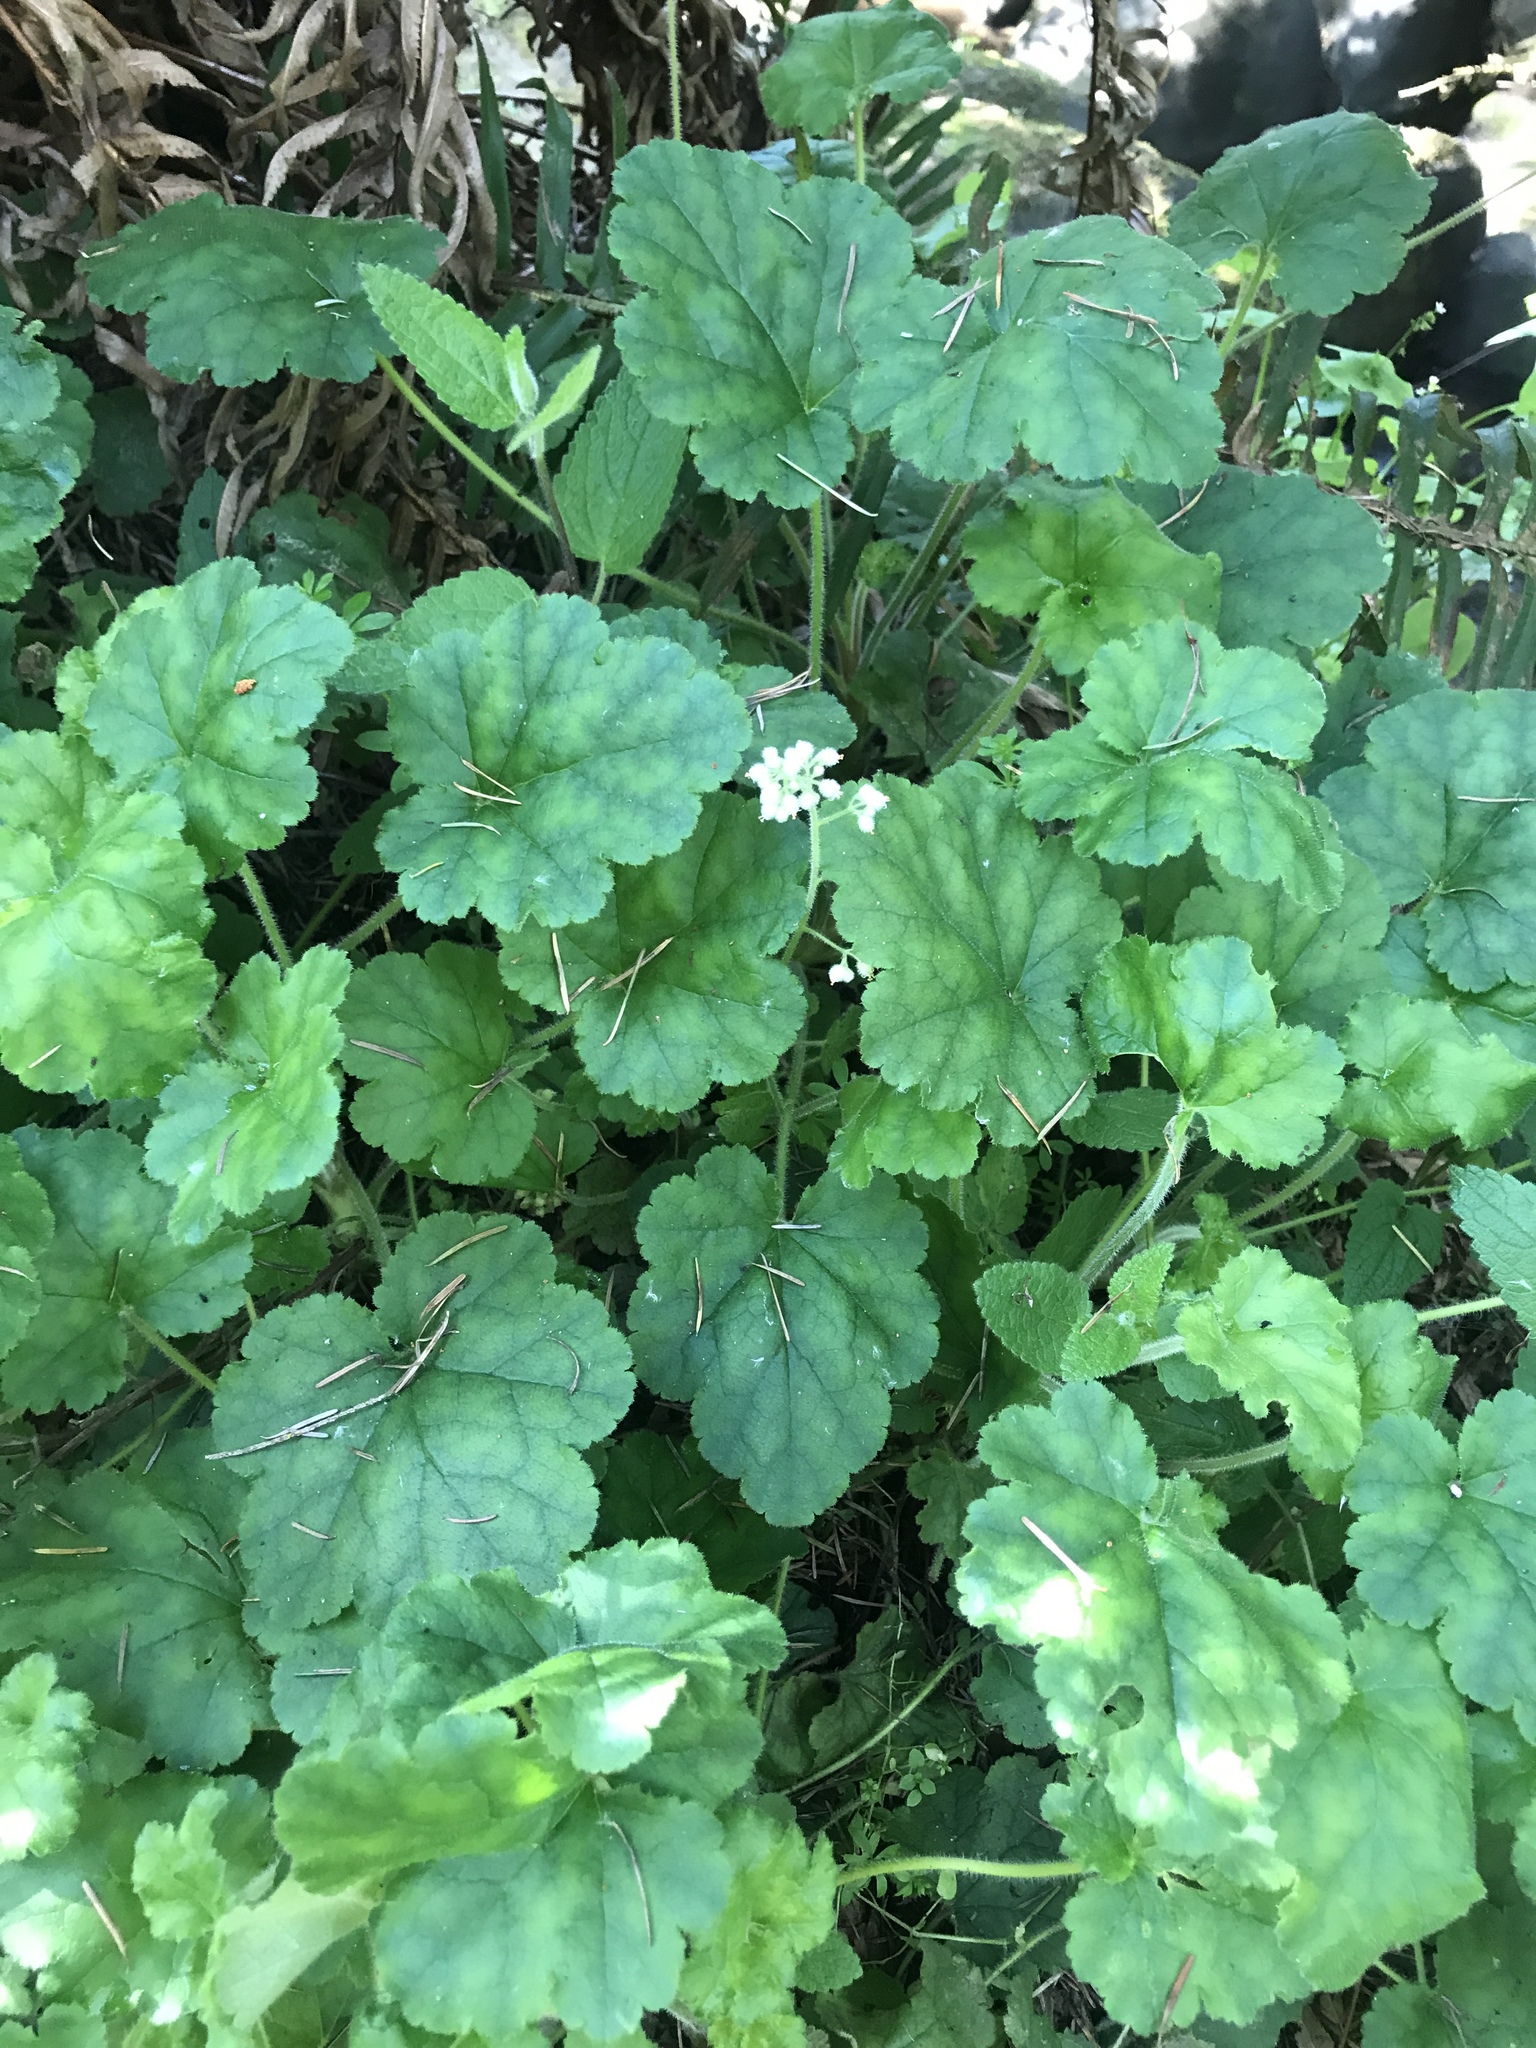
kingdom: Plantae
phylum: Tracheophyta
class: Magnoliopsida
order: Saxifragales
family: Saxifragaceae
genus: Heuchera
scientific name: Heuchera pilosissima
